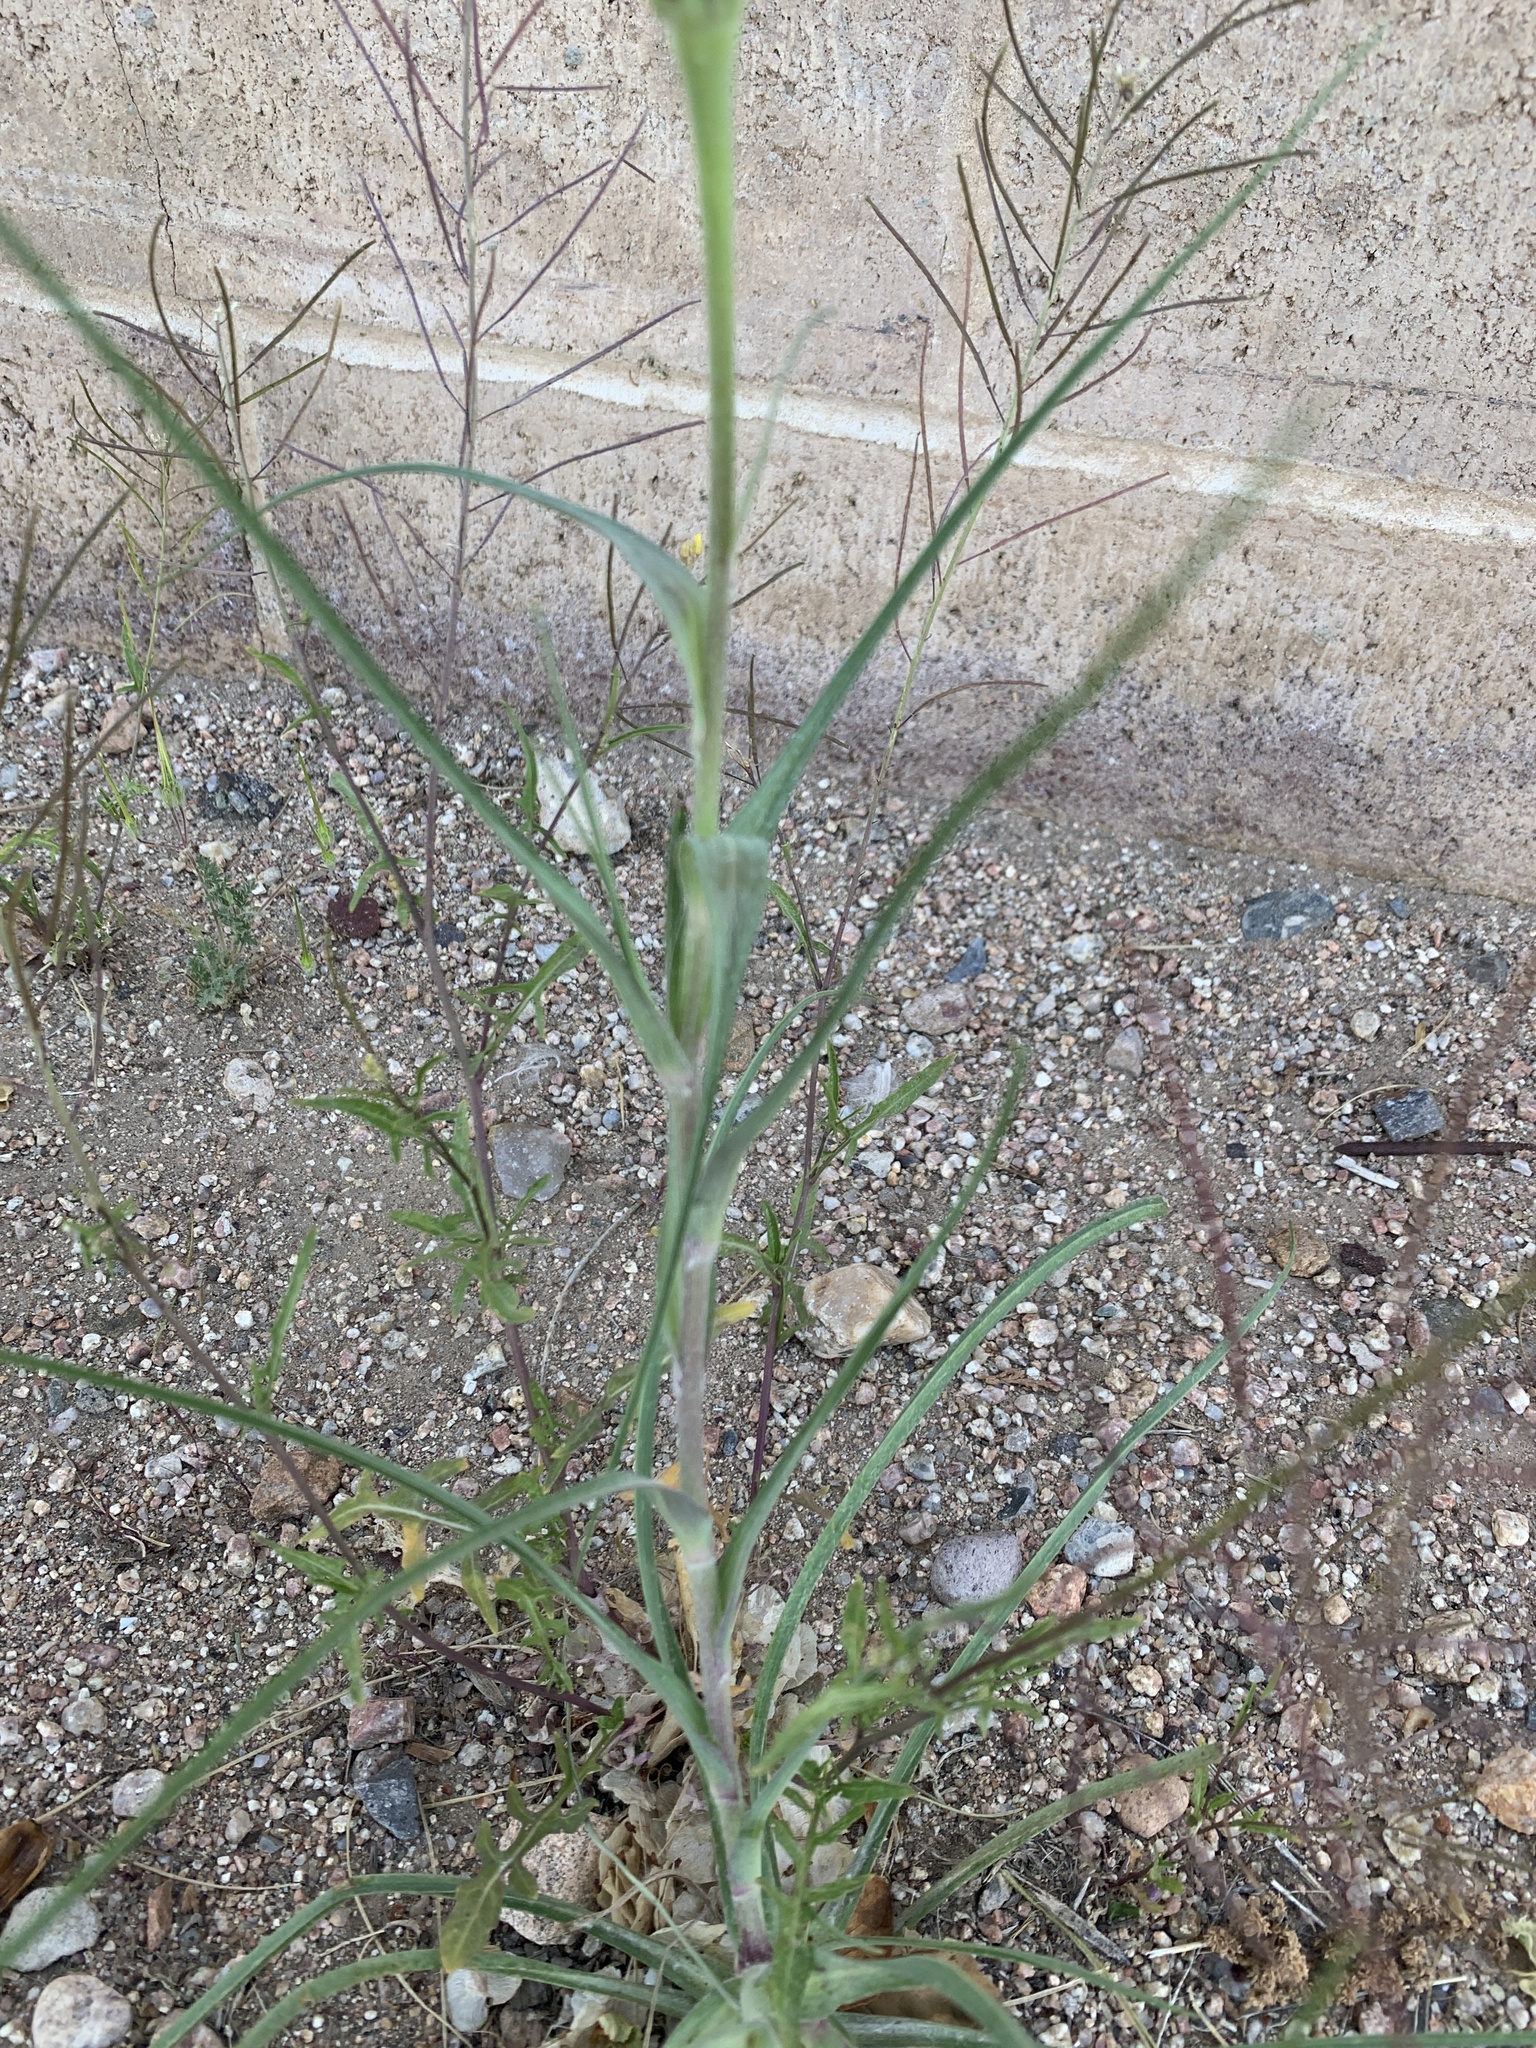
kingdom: Plantae
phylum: Tracheophyta
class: Magnoliopsida
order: Asterales
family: Asteraceae
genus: Tragopogon
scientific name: Tragopogon dubius
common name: Yellow salsify
